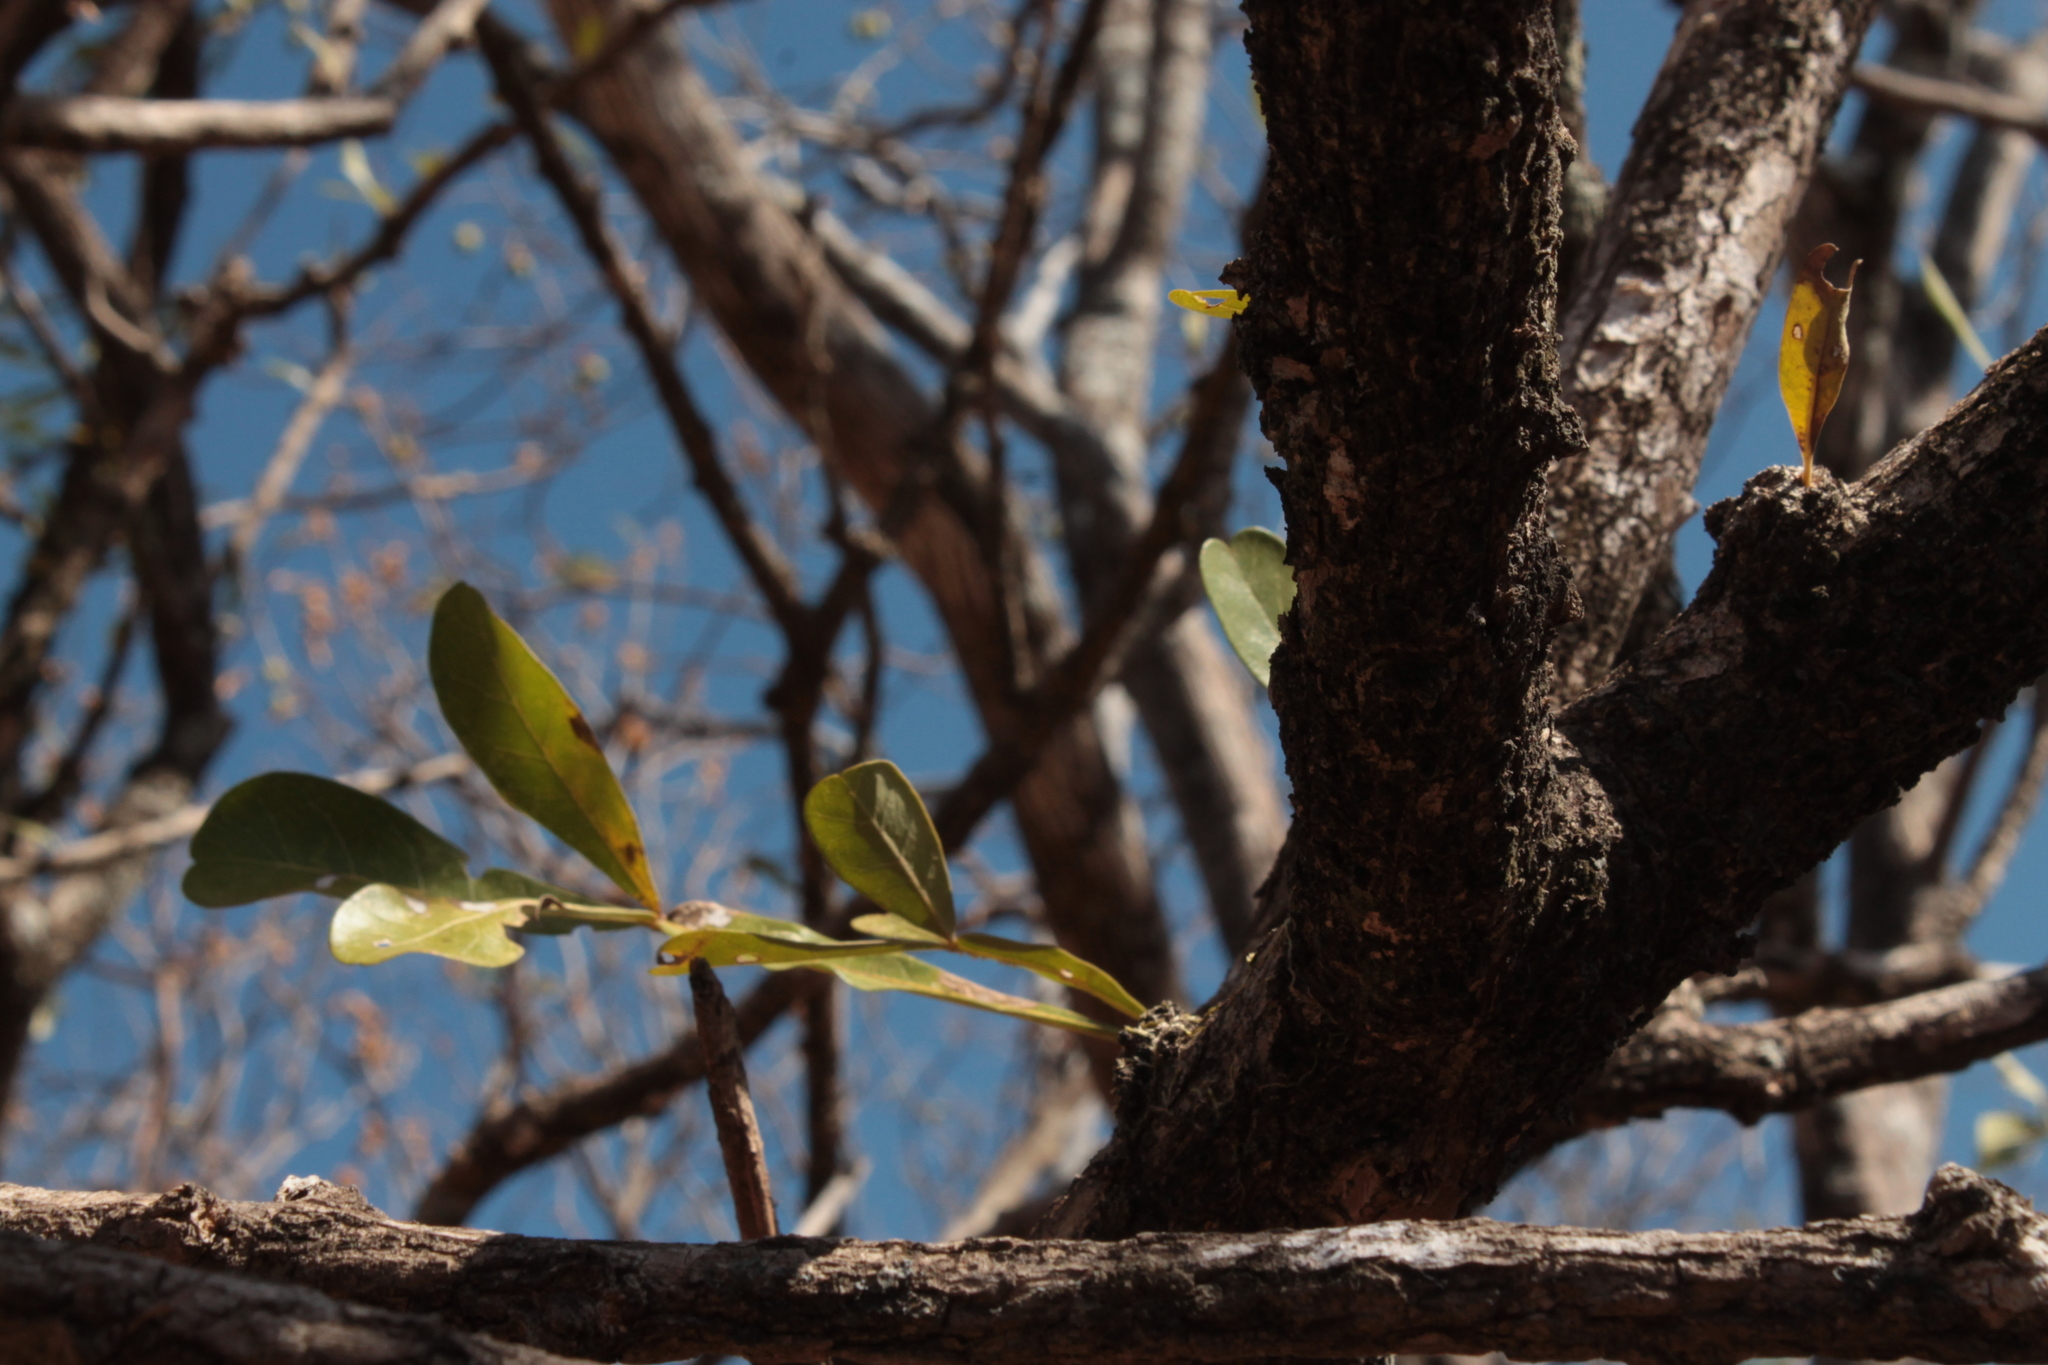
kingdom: Plantae
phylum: Tracheophyta
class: Magnoliopsida
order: Lamiales
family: Bignoniaceae
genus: Crescentia
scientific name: Crescentia alata
